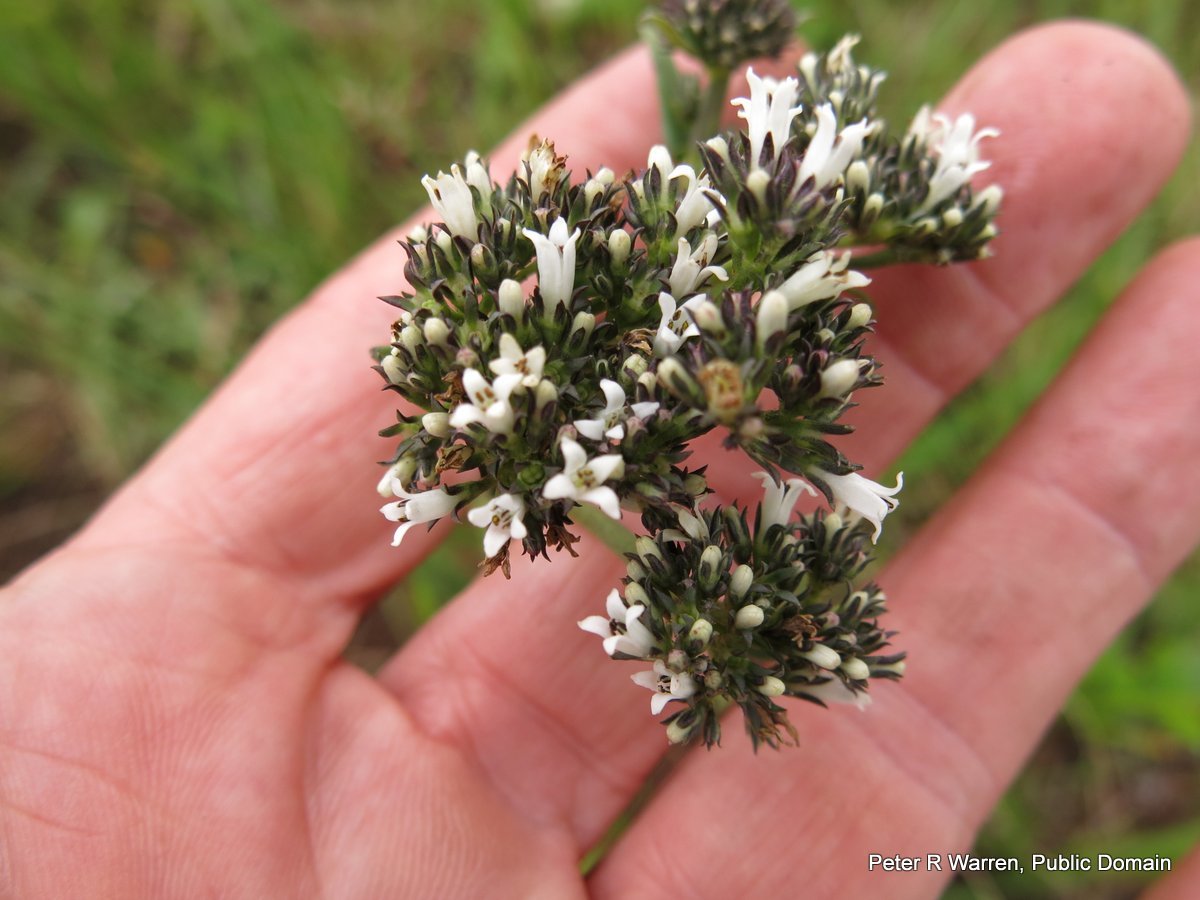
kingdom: Plantae
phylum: Tracheophyta
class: Magnoliopsida
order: Gentianales
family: Rubiaceae
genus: Conostomium
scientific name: Conostomium natalense
